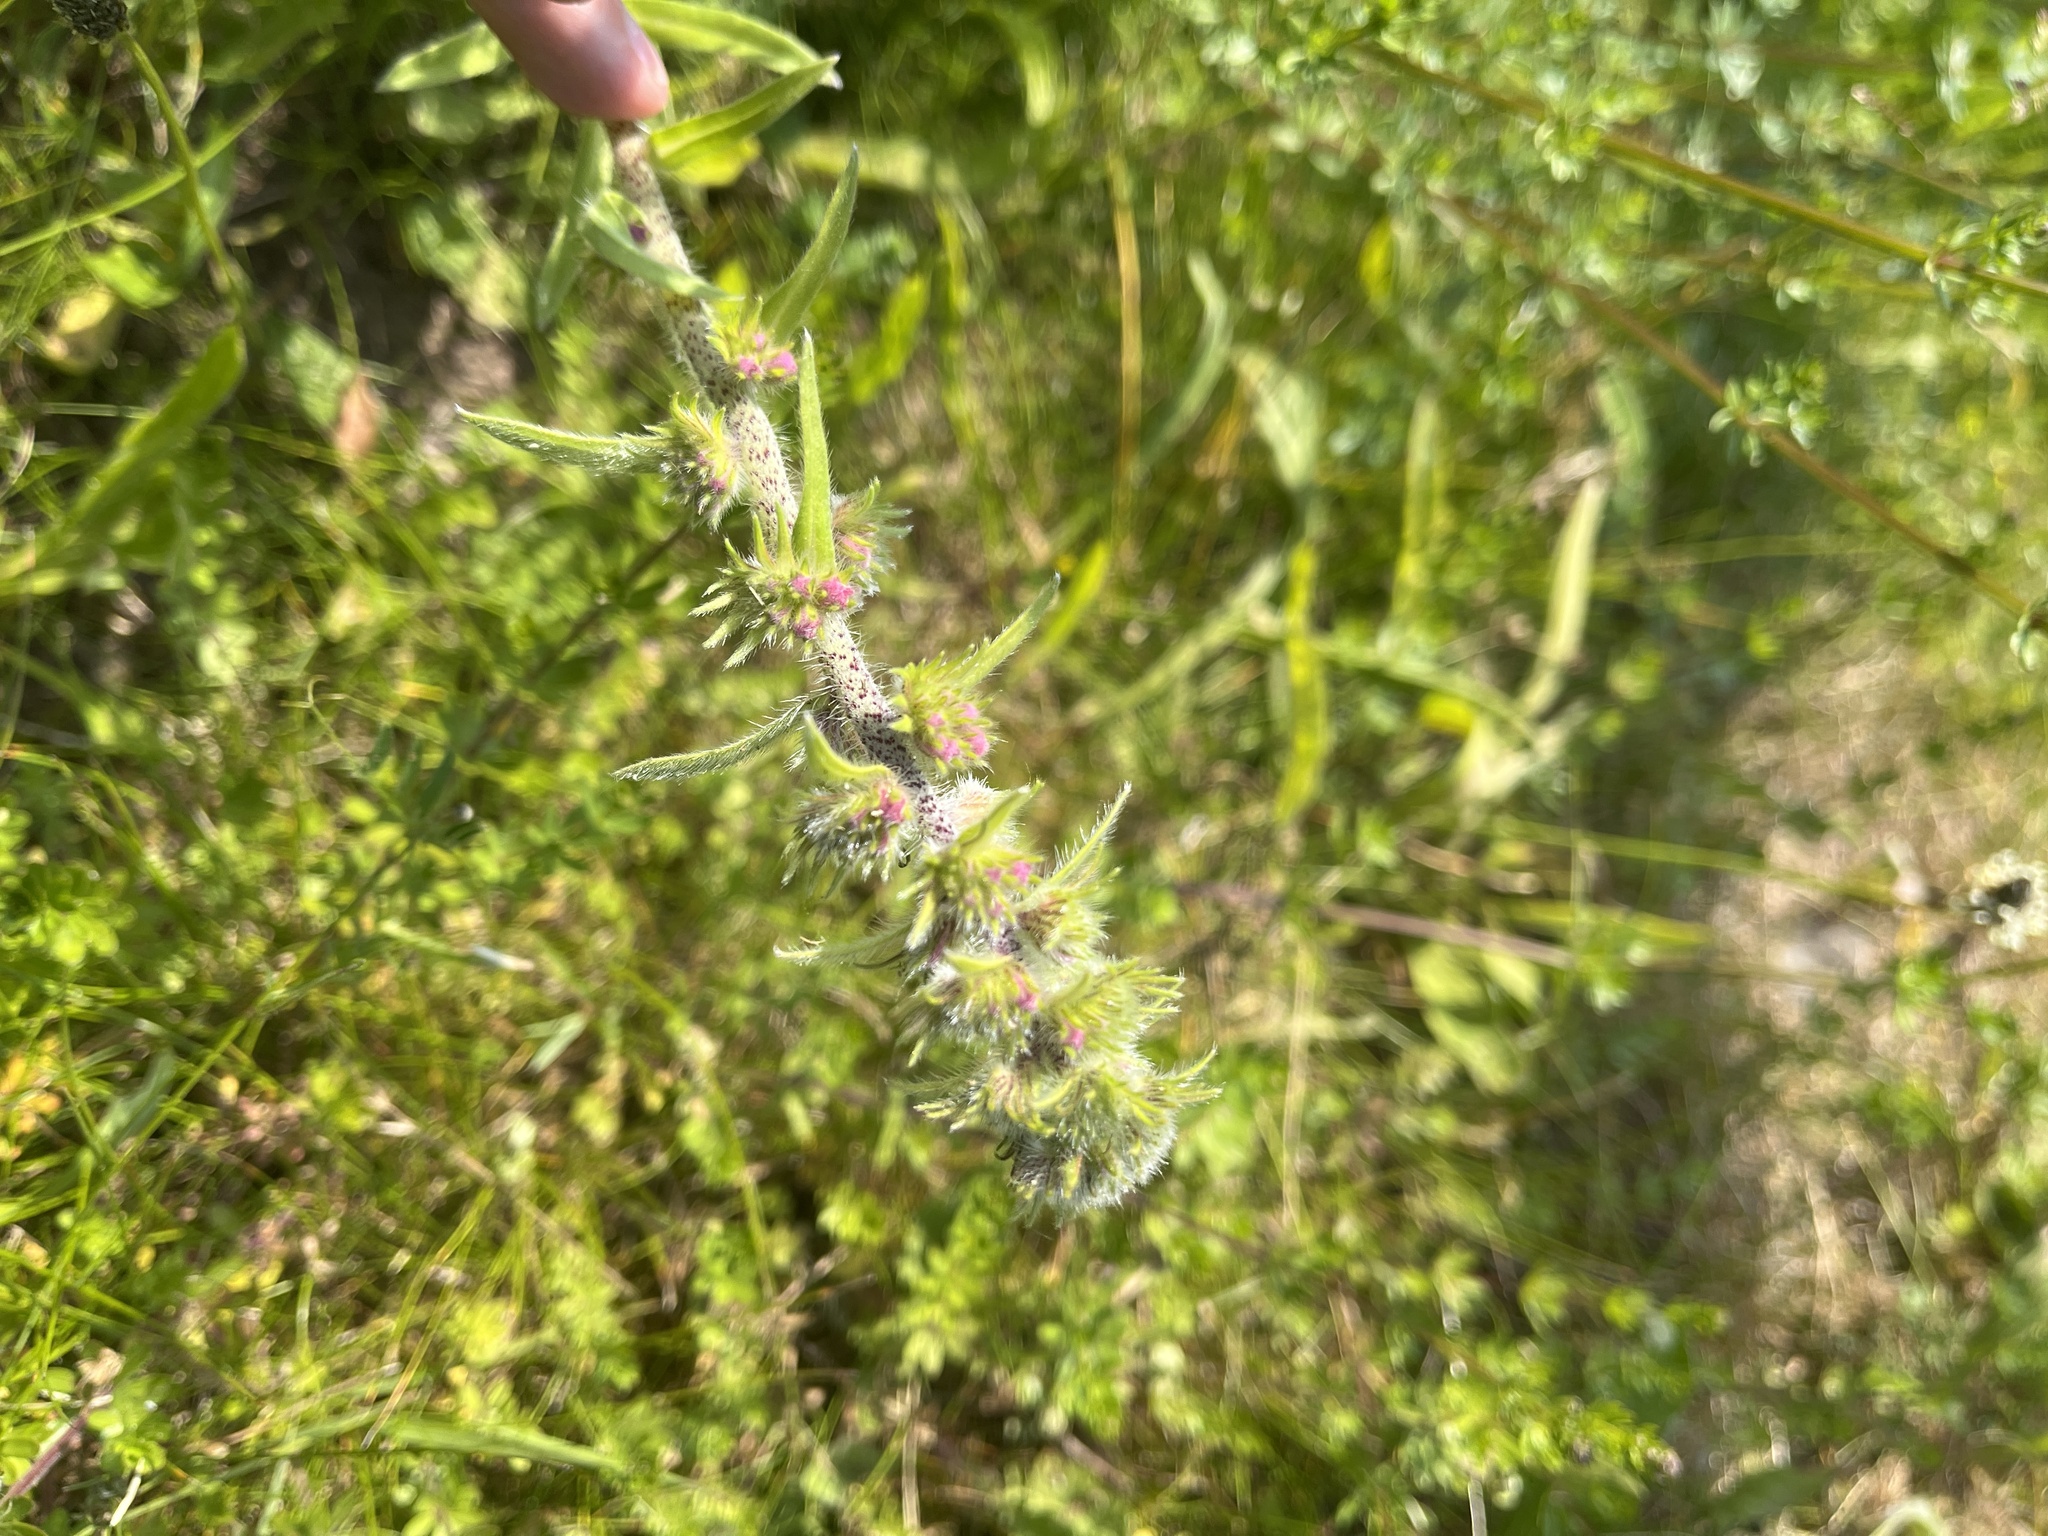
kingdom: Plantae
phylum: Tracheophyta
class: Magnoliopsida
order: Boraginales
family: Boraginaceae
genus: Echium
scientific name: Echium vulgare
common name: Common viper's bugloss
